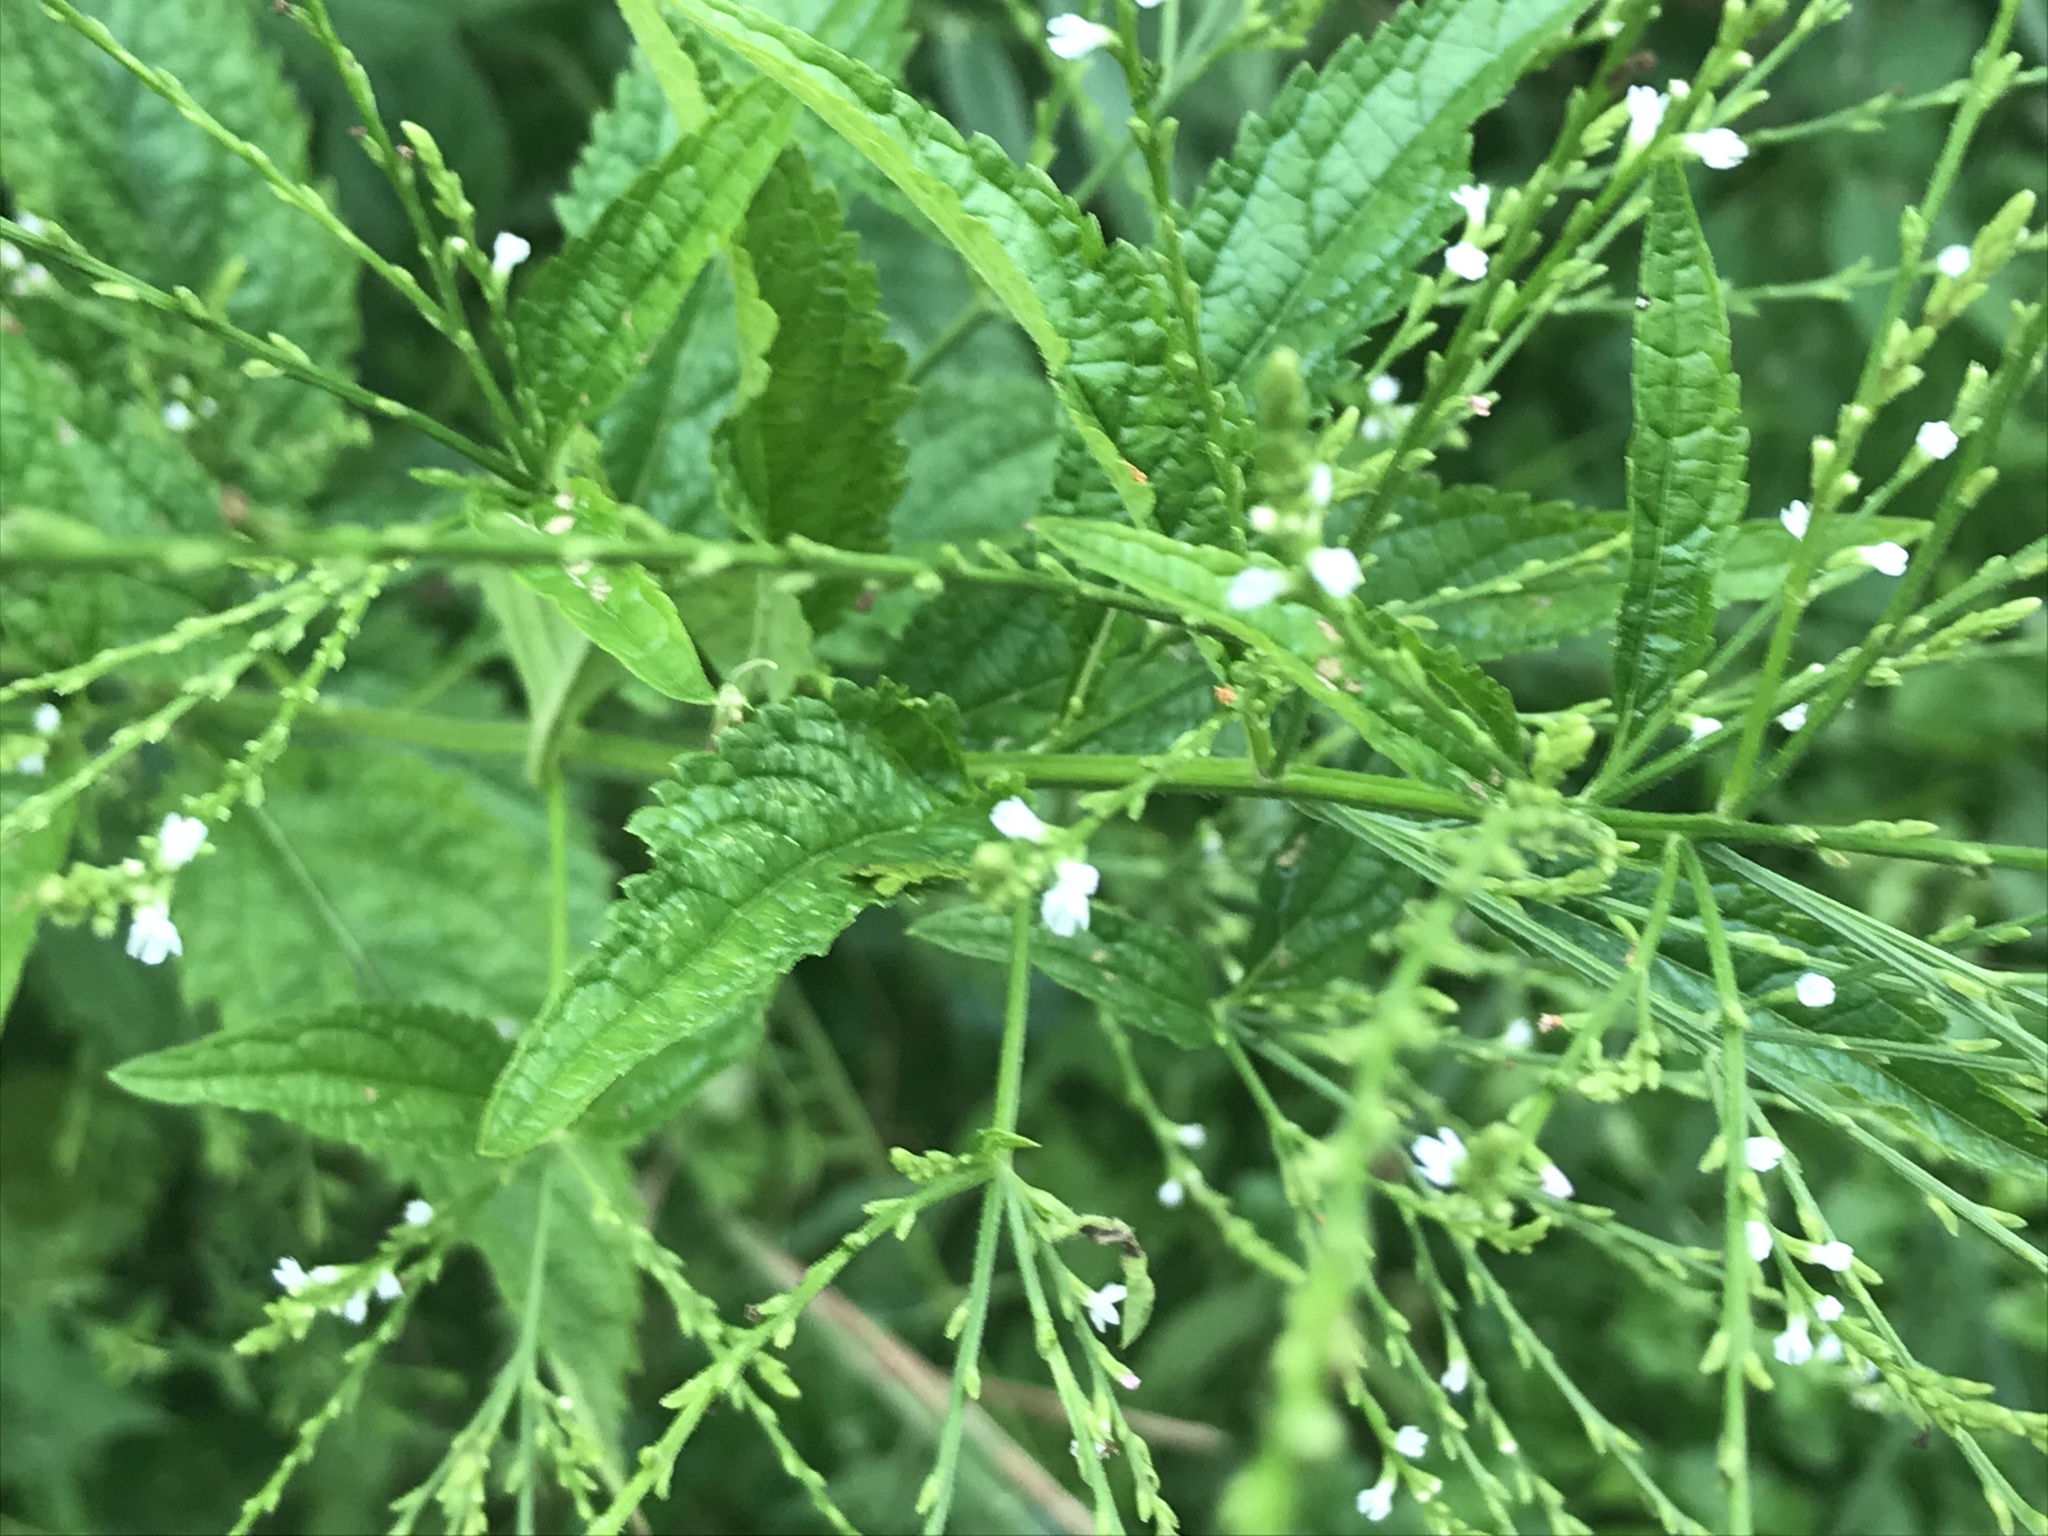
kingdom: Plantae
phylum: Tracheophyta
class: Magnoliopsida
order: Lamiales
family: Verbenaceae
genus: Verbena
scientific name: Verbena urticifolia
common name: Nettle-leaved vervain
